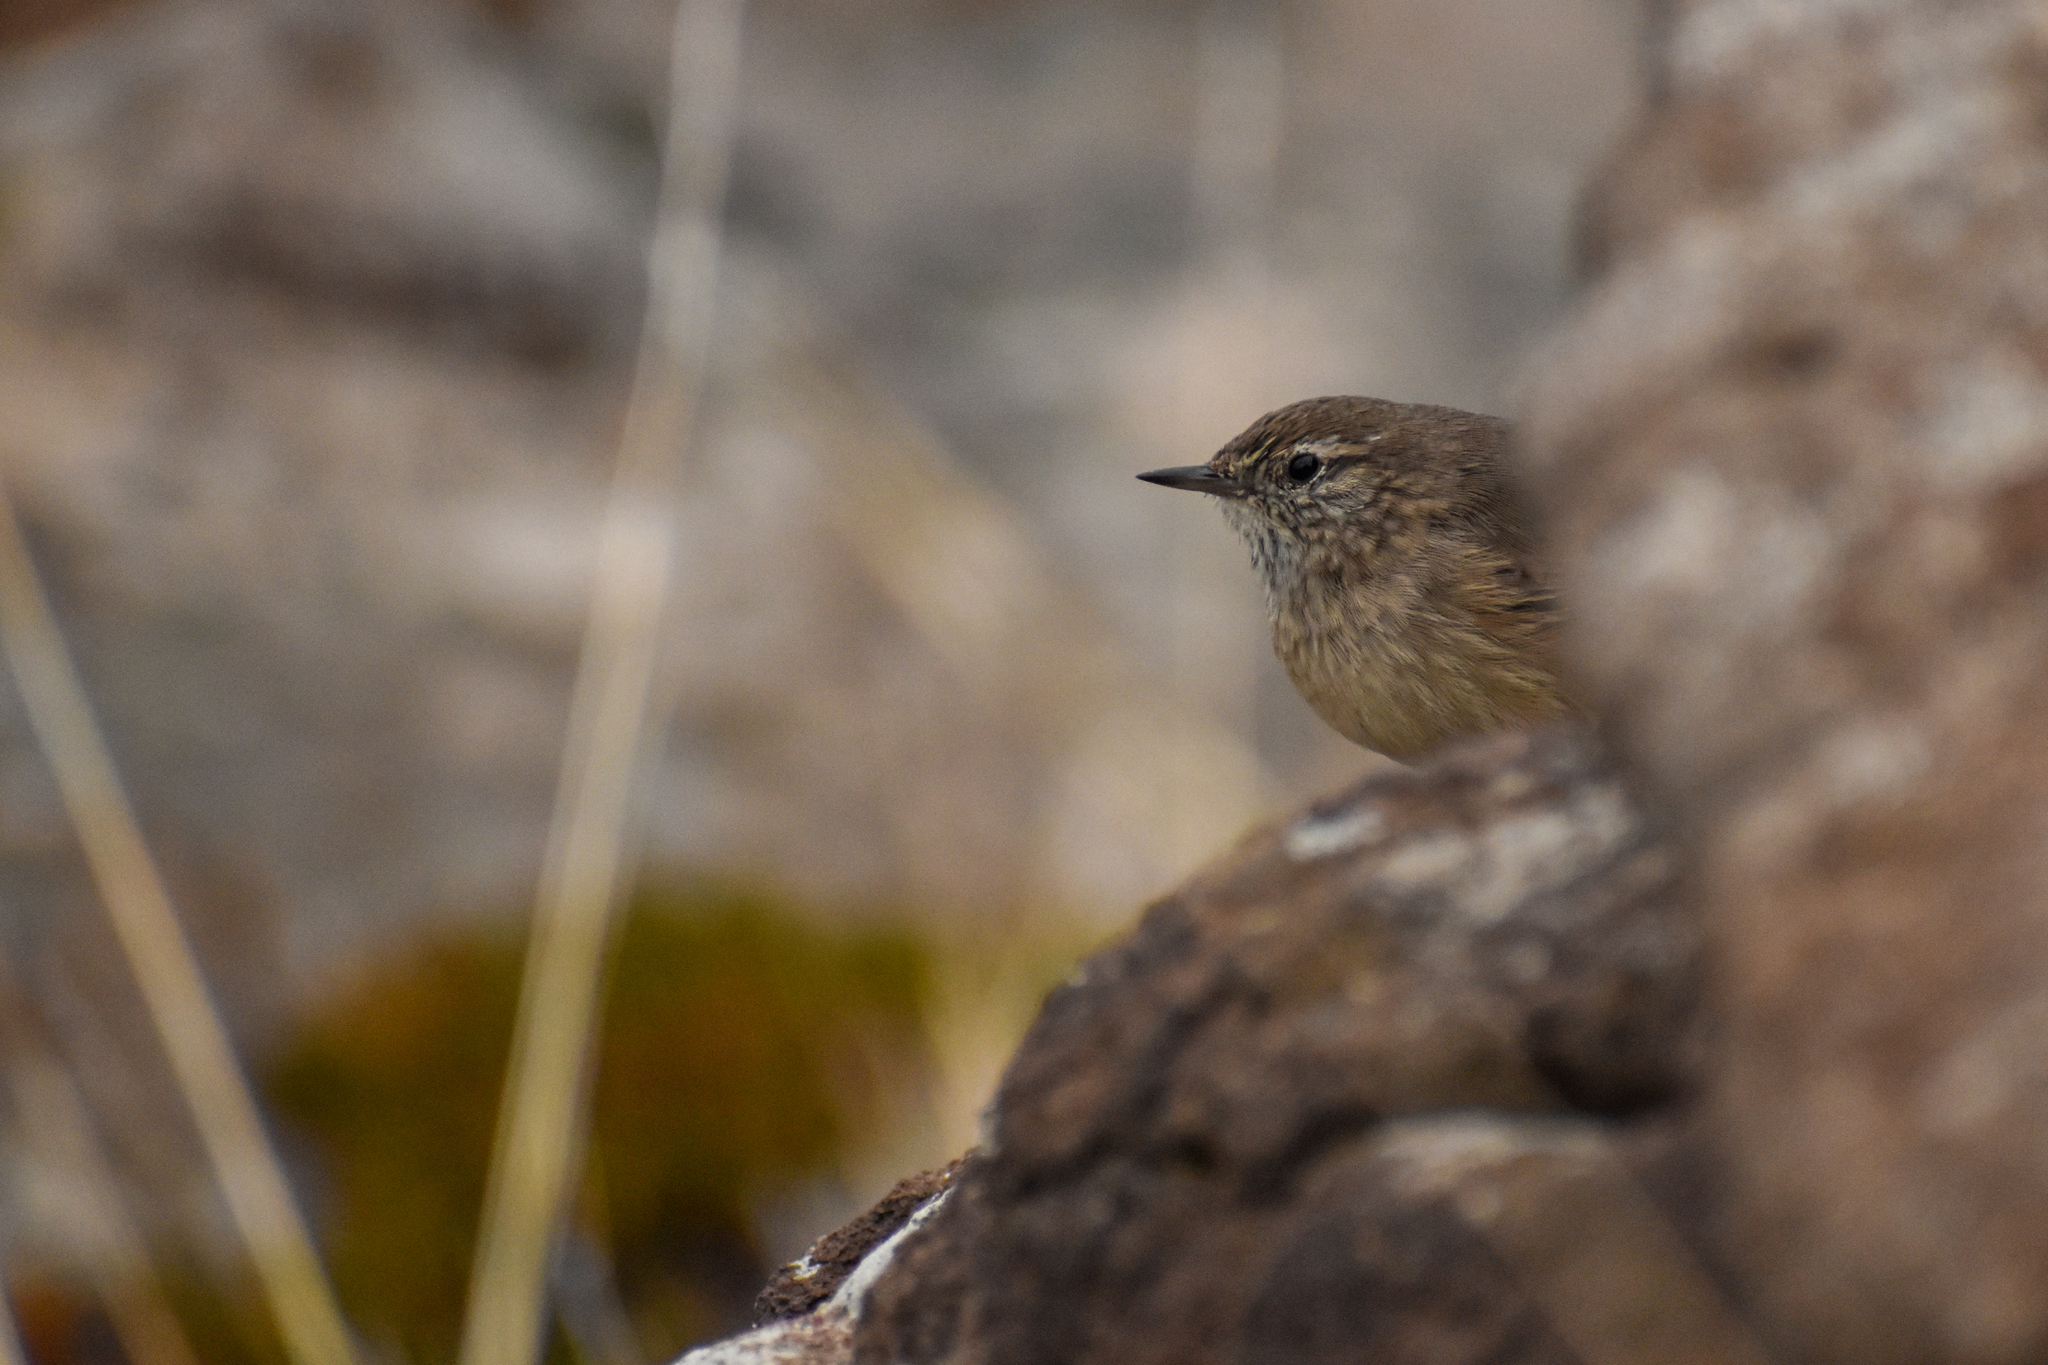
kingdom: Animalia
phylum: Chordata
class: Aves
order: Passeriformes
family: Furnariidae
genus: Asthenes
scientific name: Asthenes modesta
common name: Cordilleran canastero
